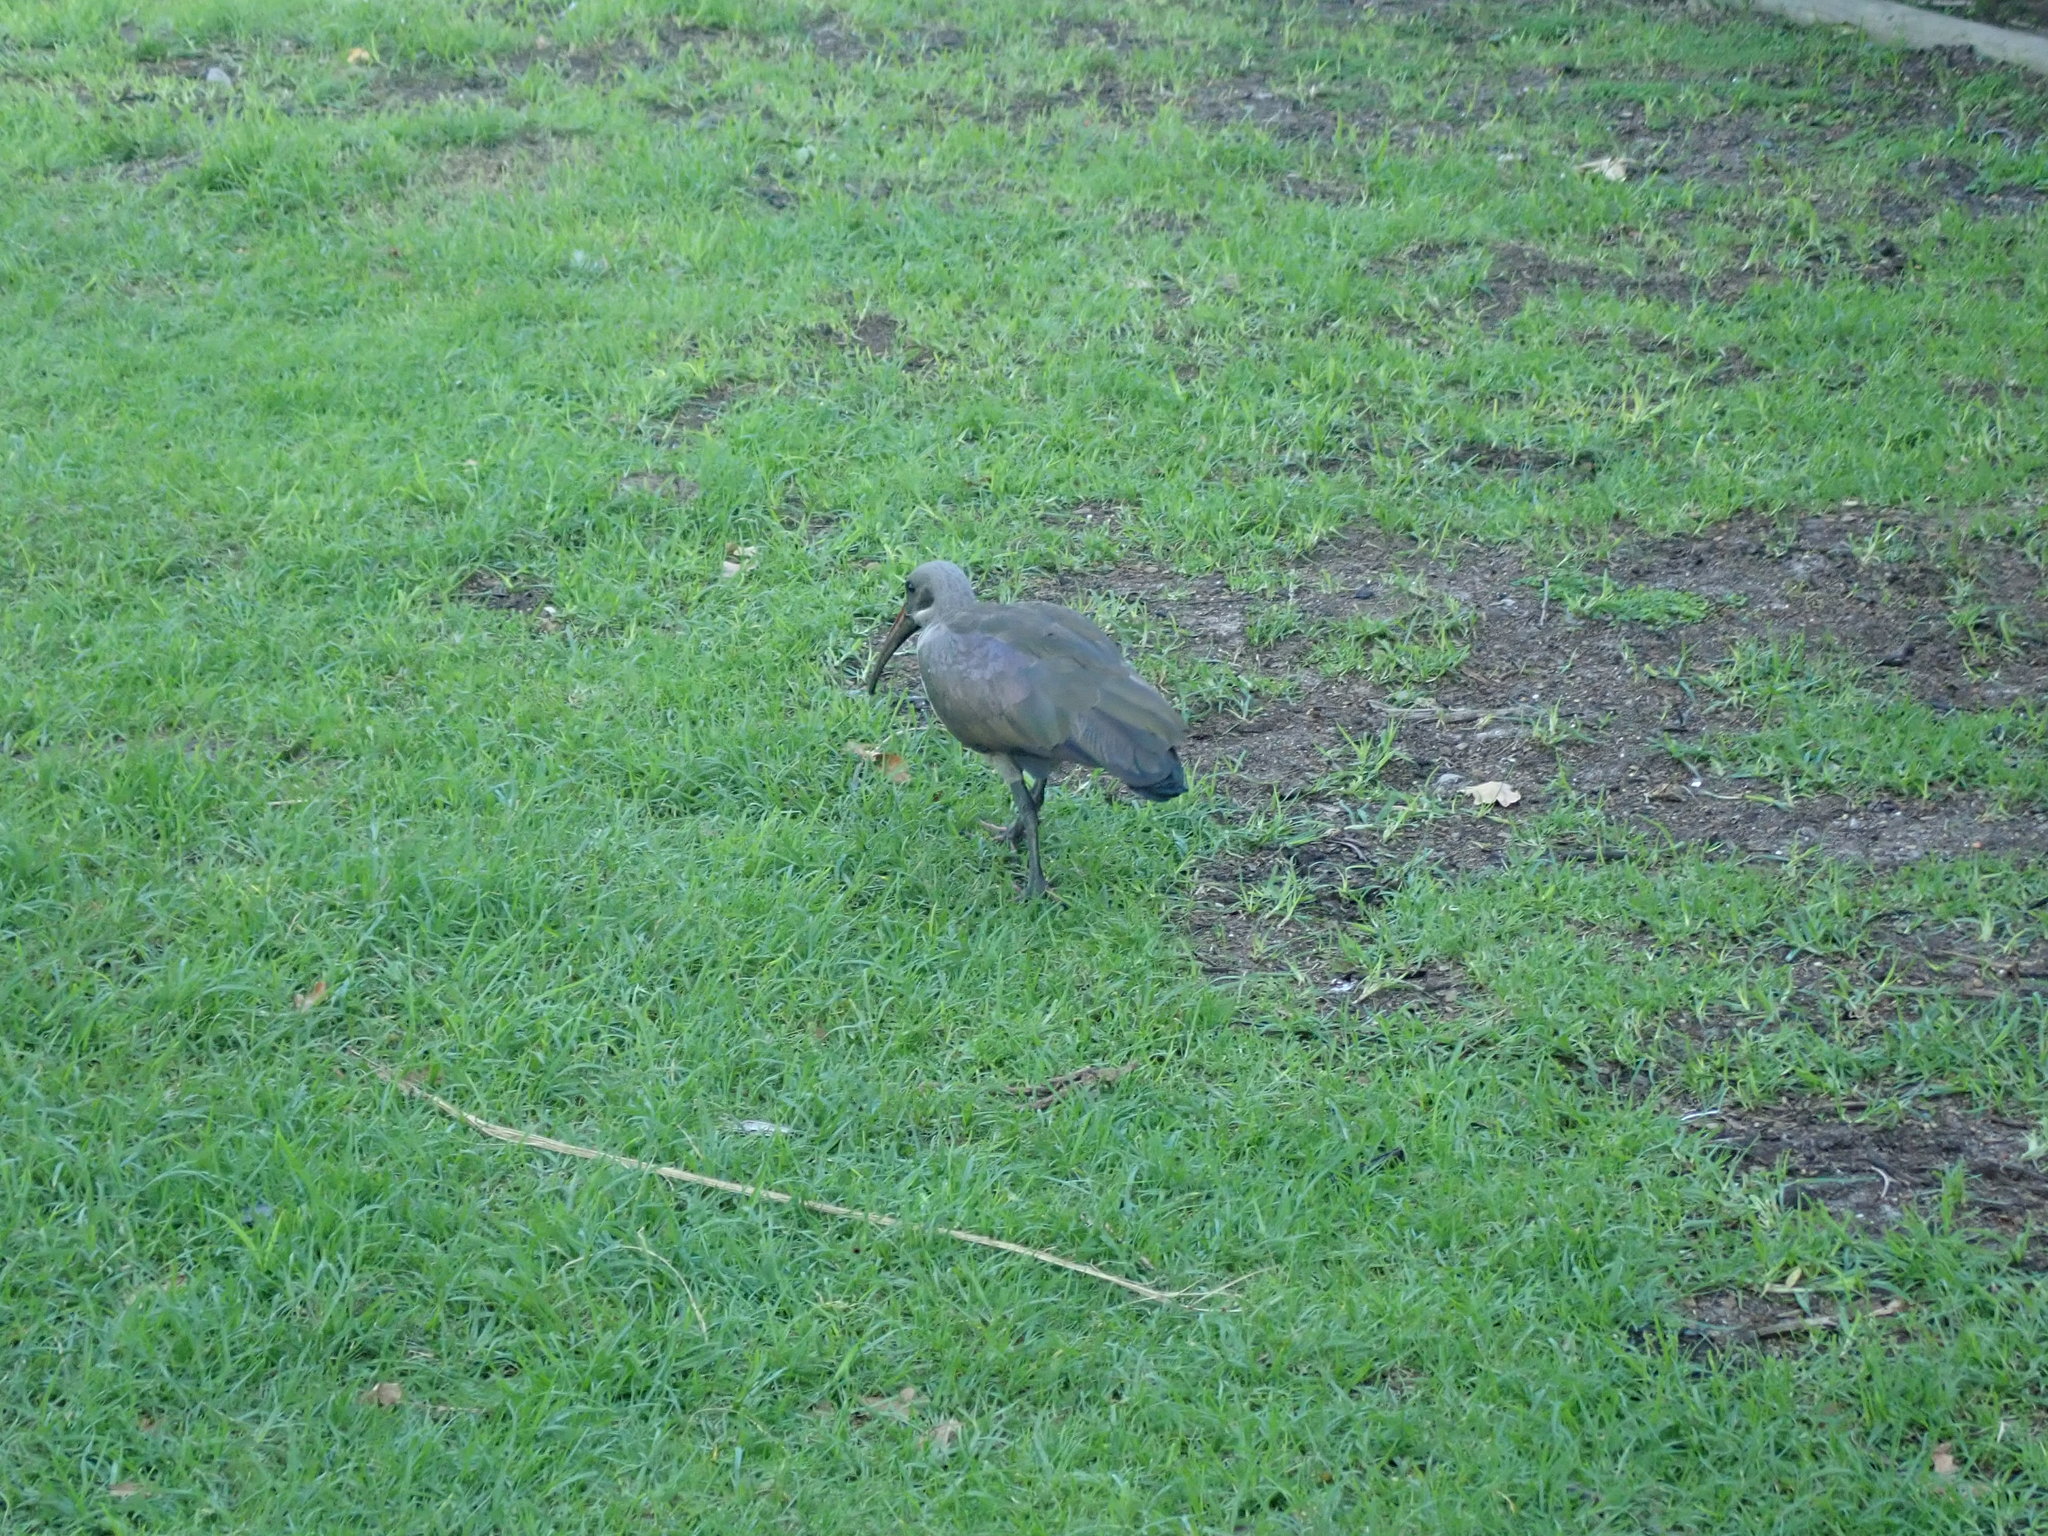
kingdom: Animalia
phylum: Chordata
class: Aves
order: Pelecaniformes
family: Threskiornithidae
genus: Bostrychia
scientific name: Bostrychia hagedash
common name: Hadada ibis
